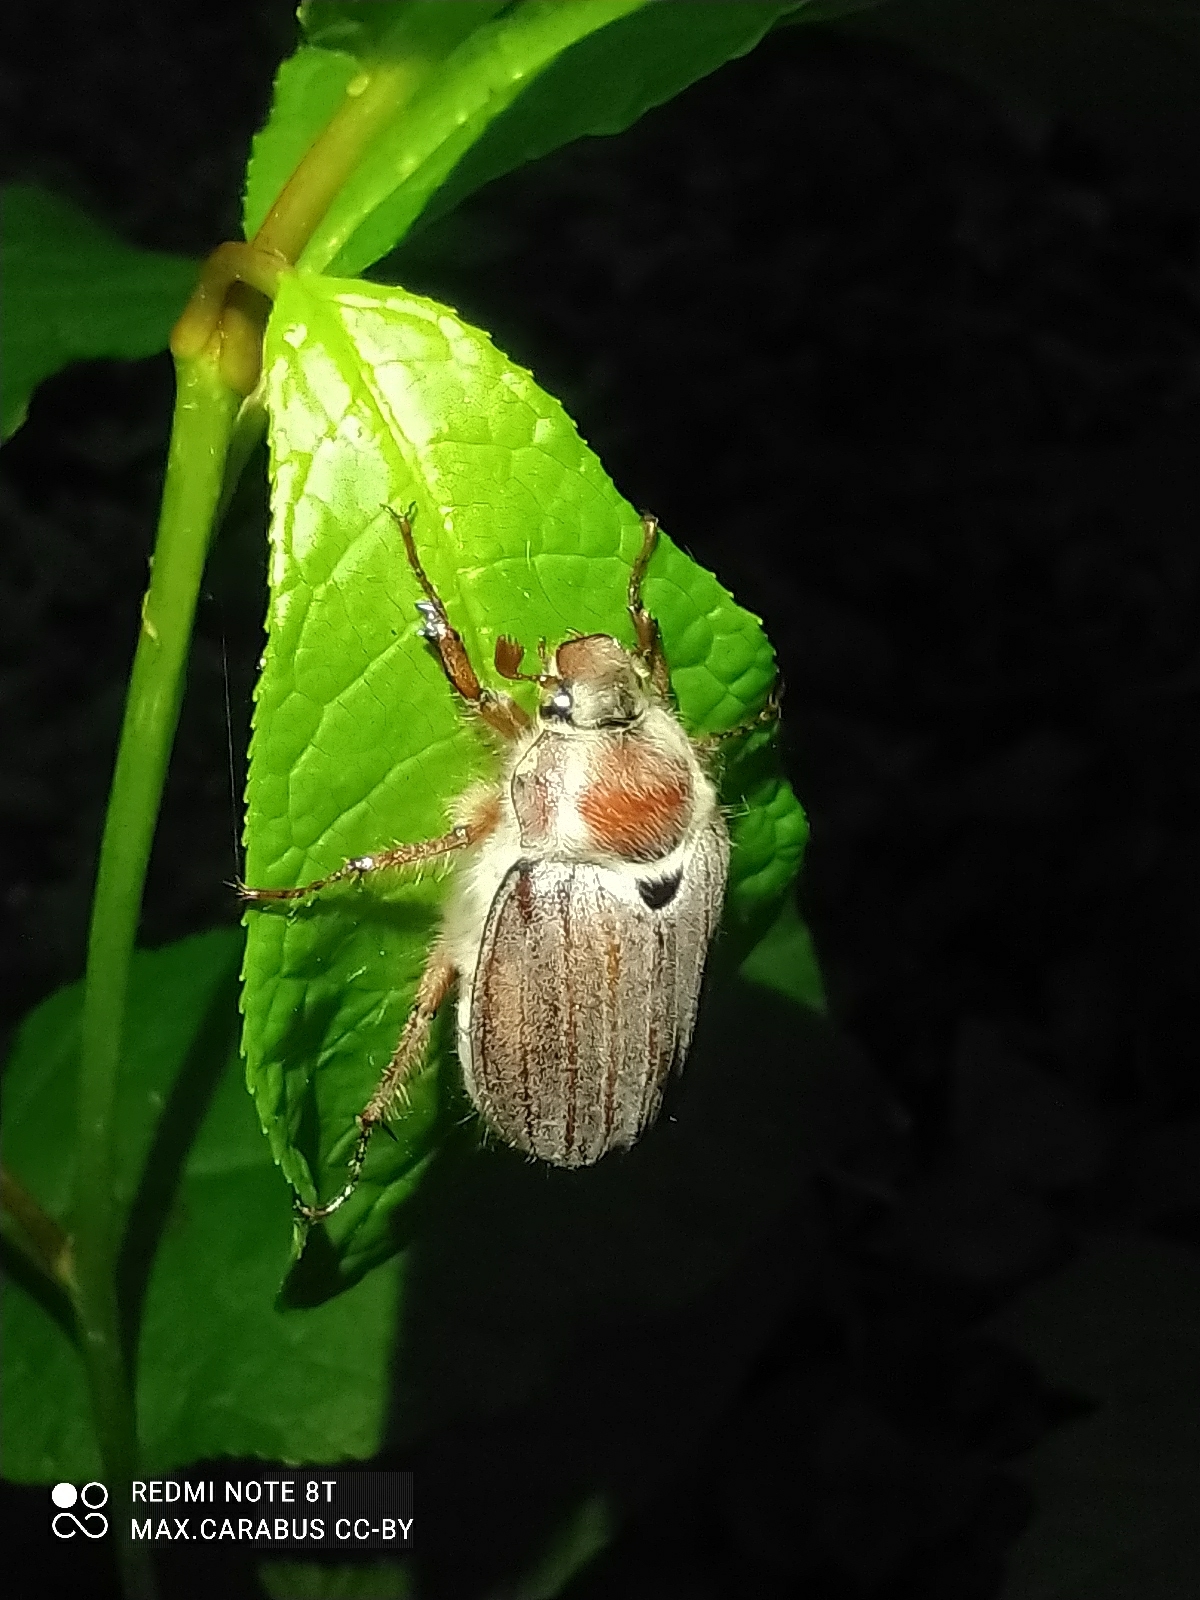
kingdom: Animalia
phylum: Arthropoda
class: Insecta
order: Coleoptera
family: Scarabaeidae
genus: Melolontha
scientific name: Melolontha hippocastani
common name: Chestnut cockchafer
